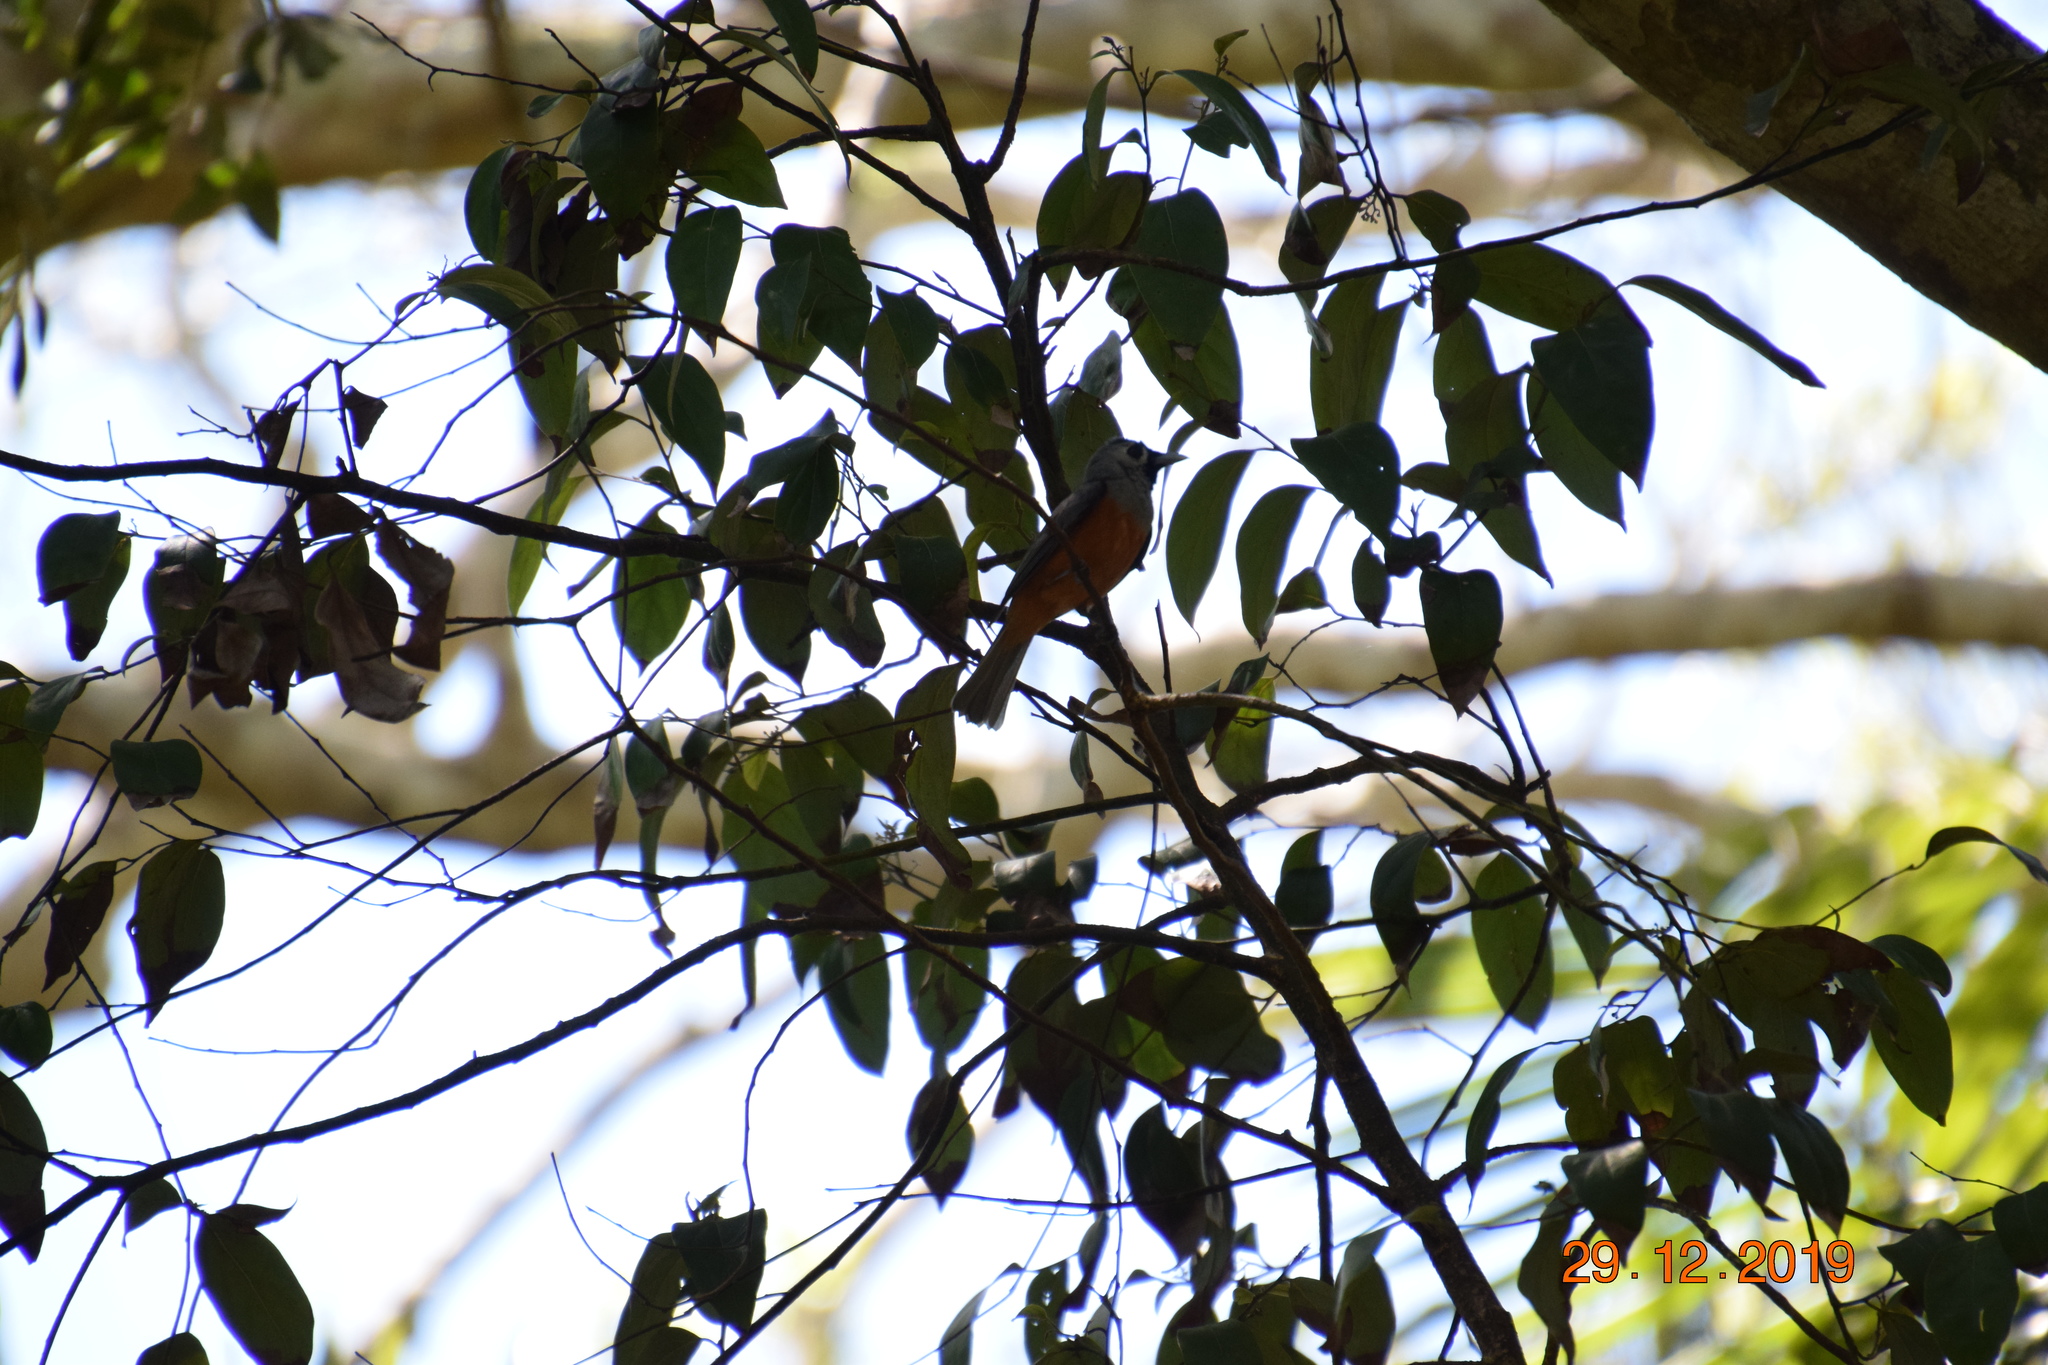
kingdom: Animalia
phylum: Chordata
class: Aves
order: Passeriformes
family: Monarchidae
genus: Monarcha
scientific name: Monarcha melanopsis
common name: Black-faced monarch
